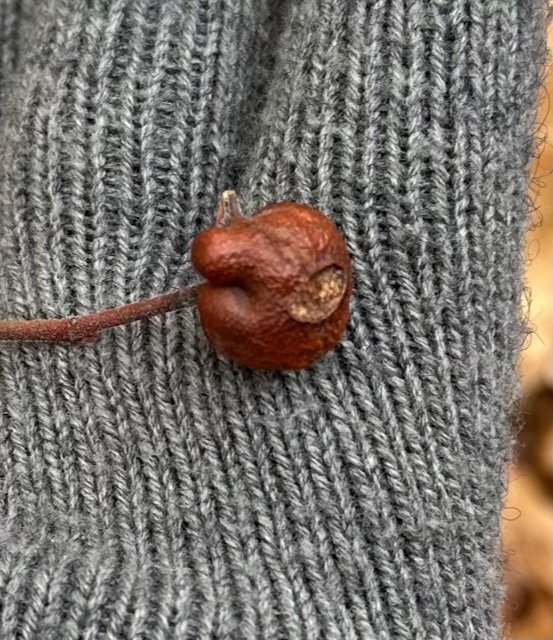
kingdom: Animalia
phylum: Arthropoda
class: Insecta
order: Hymenoptera
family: Pteromalidae
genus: Hemadas
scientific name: Hemadas nubilipennis
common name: Blueberry stem gall wasp
